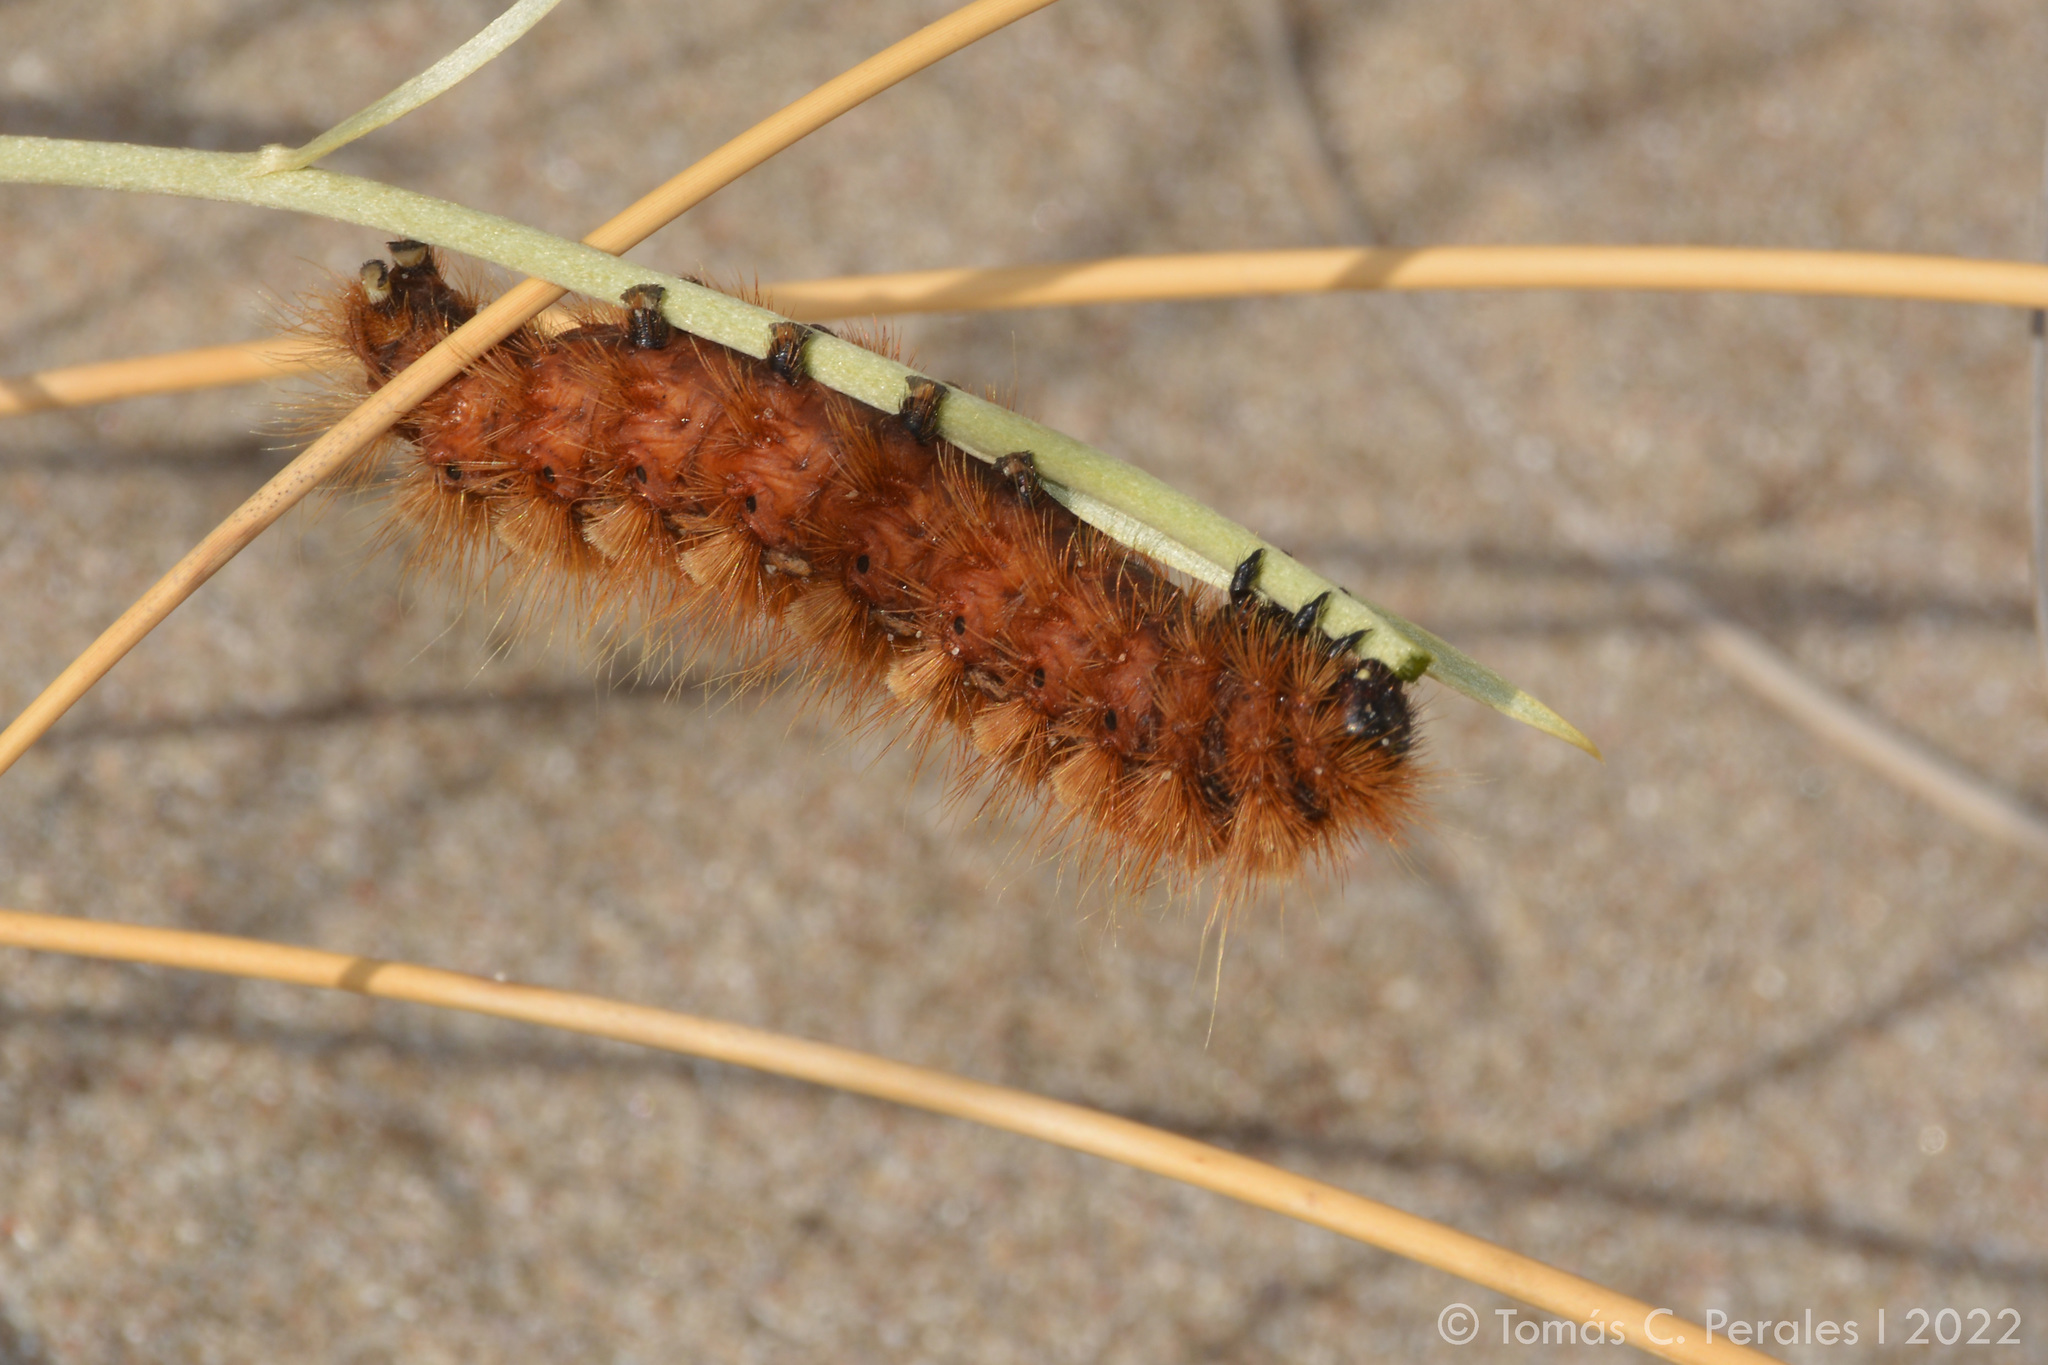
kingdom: Animalia
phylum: Arthropoda
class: Insecta
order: Lepidoptera
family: Erebidae
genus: Paracles
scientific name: Paracles severa
